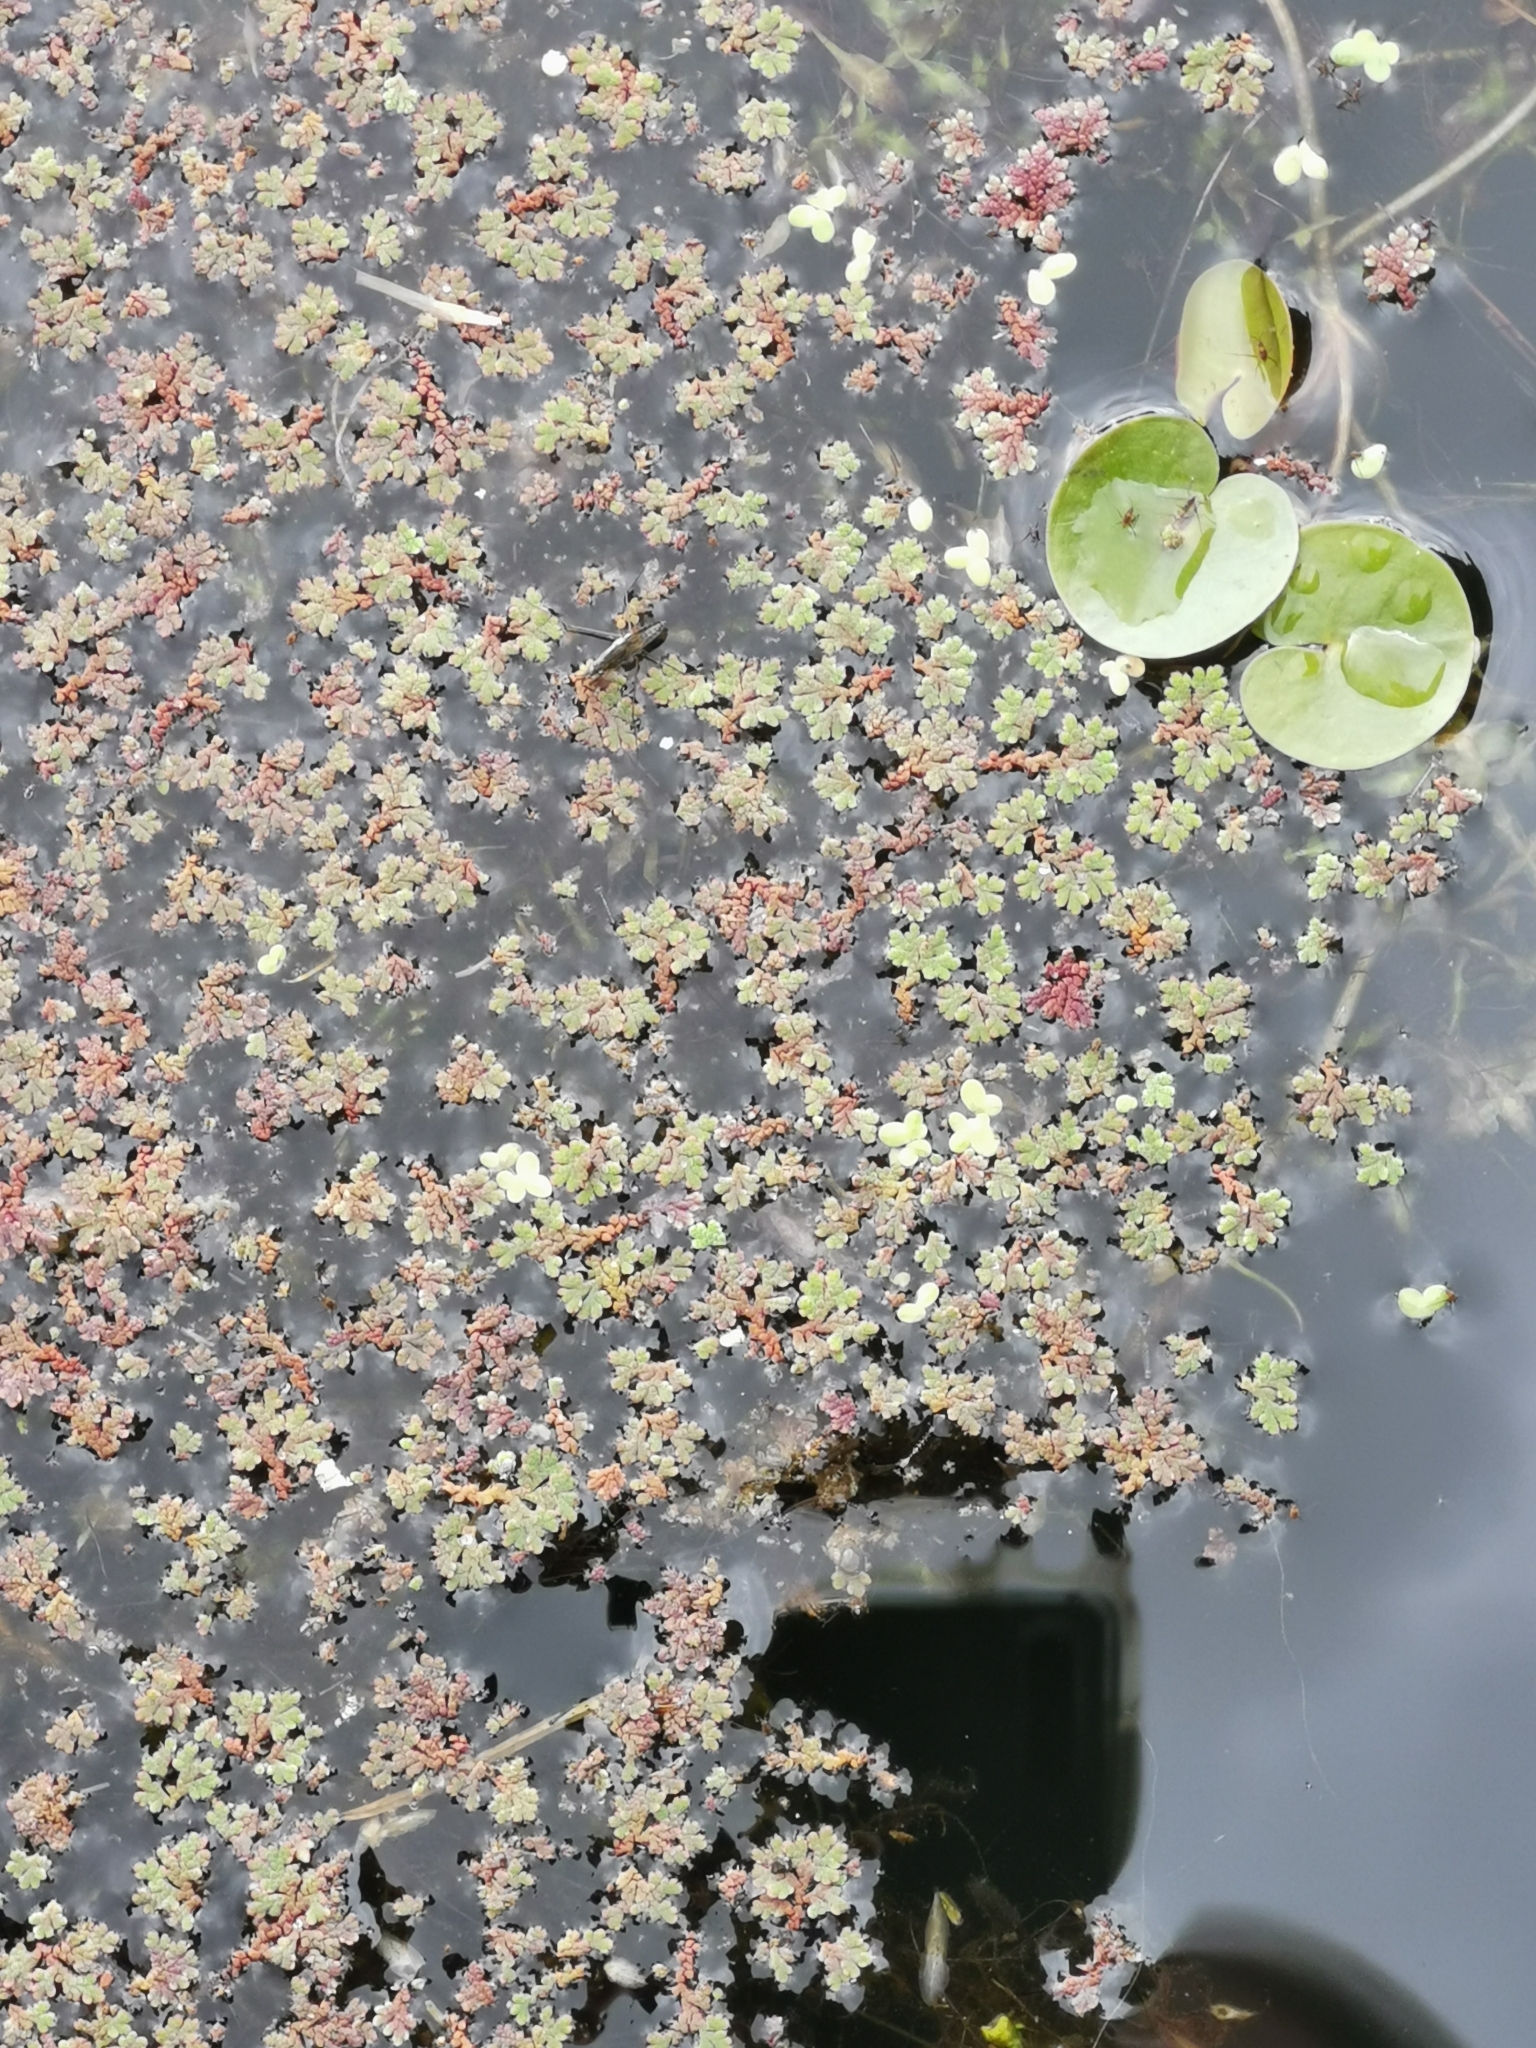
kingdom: Plantae
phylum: Tracheophyta
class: Polypodiopsida
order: Salviniales
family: Salviniaceae
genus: Azolla
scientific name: Azolla filiculoides
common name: Water fern
